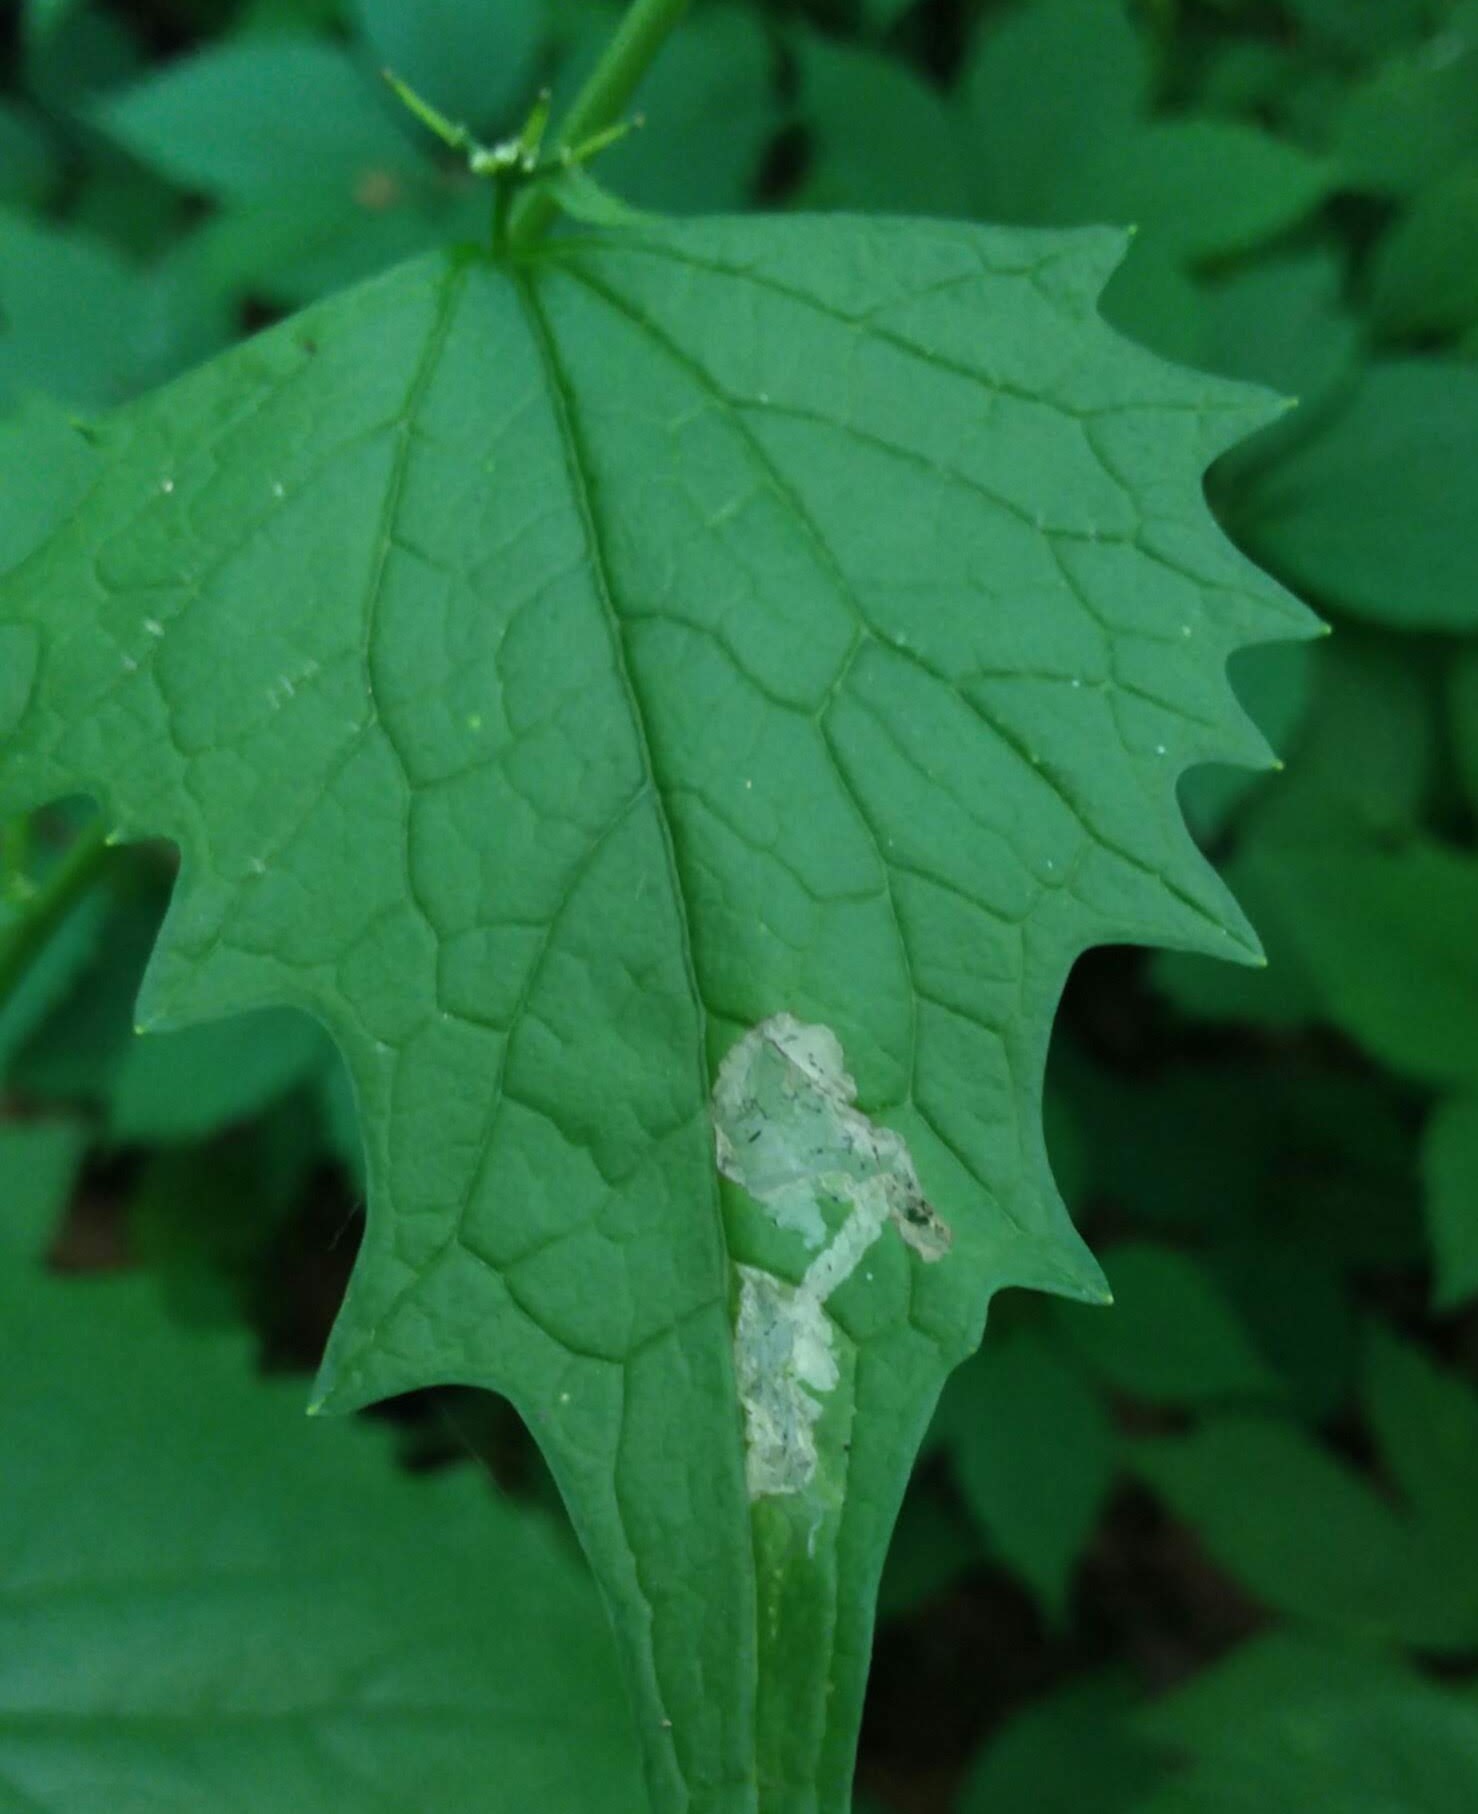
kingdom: Animalia
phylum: Arthropoda
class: Insecta
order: Diptera
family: Agromyzidae
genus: Liriomyza
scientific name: Liriomyza brassicae
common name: Serpentine leaf miner
